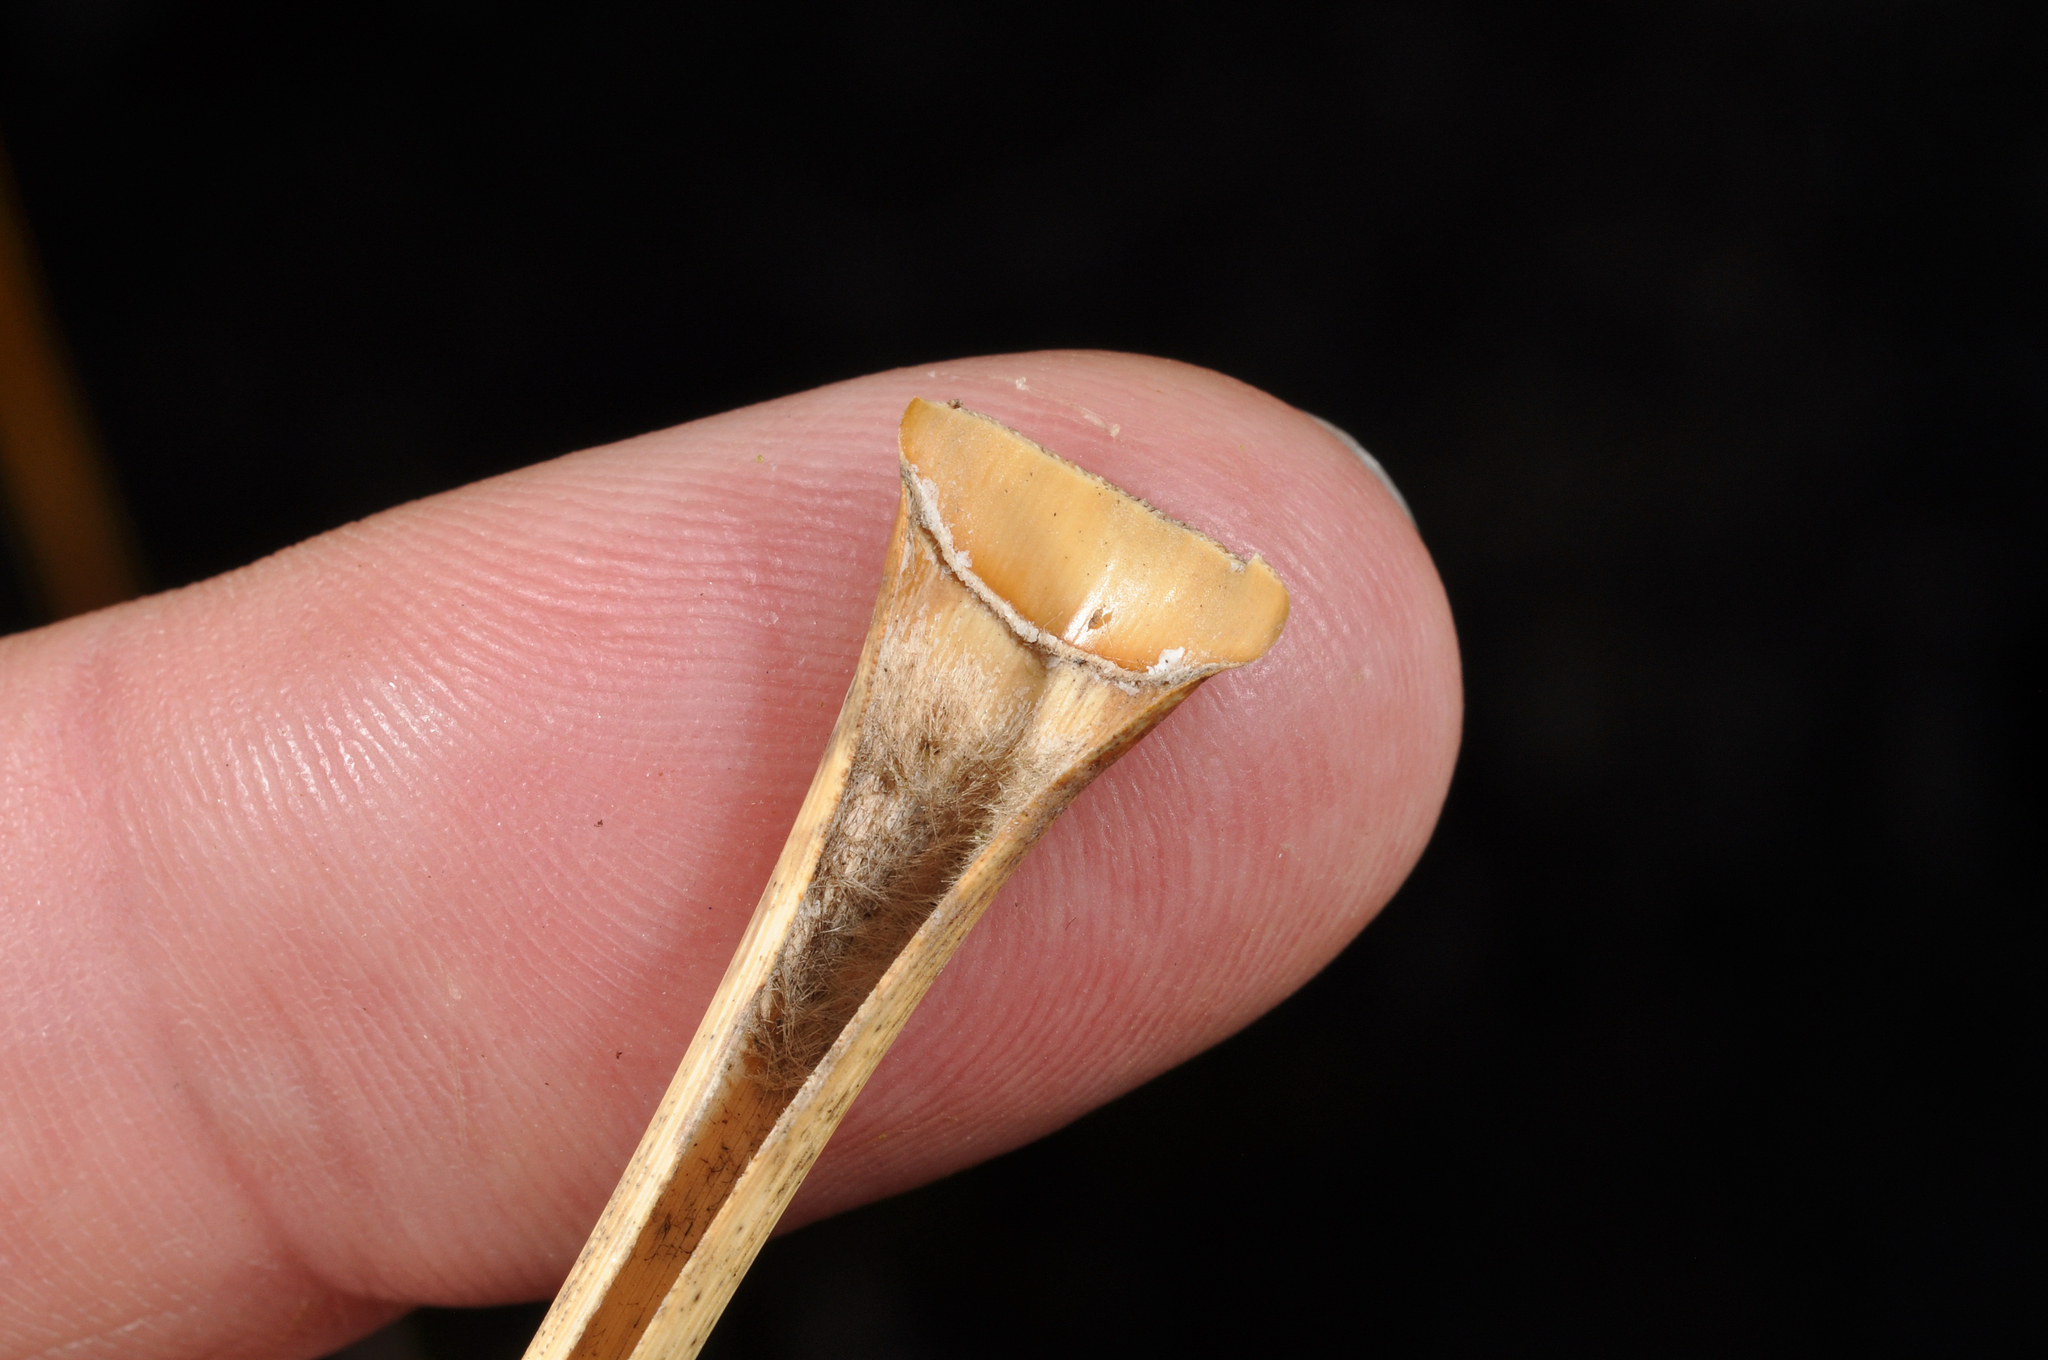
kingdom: Plantae
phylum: Tracheophyta
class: Liliopsida
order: Poales
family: Poaceae
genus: Chionochloa
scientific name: Chionochloa flavescens
